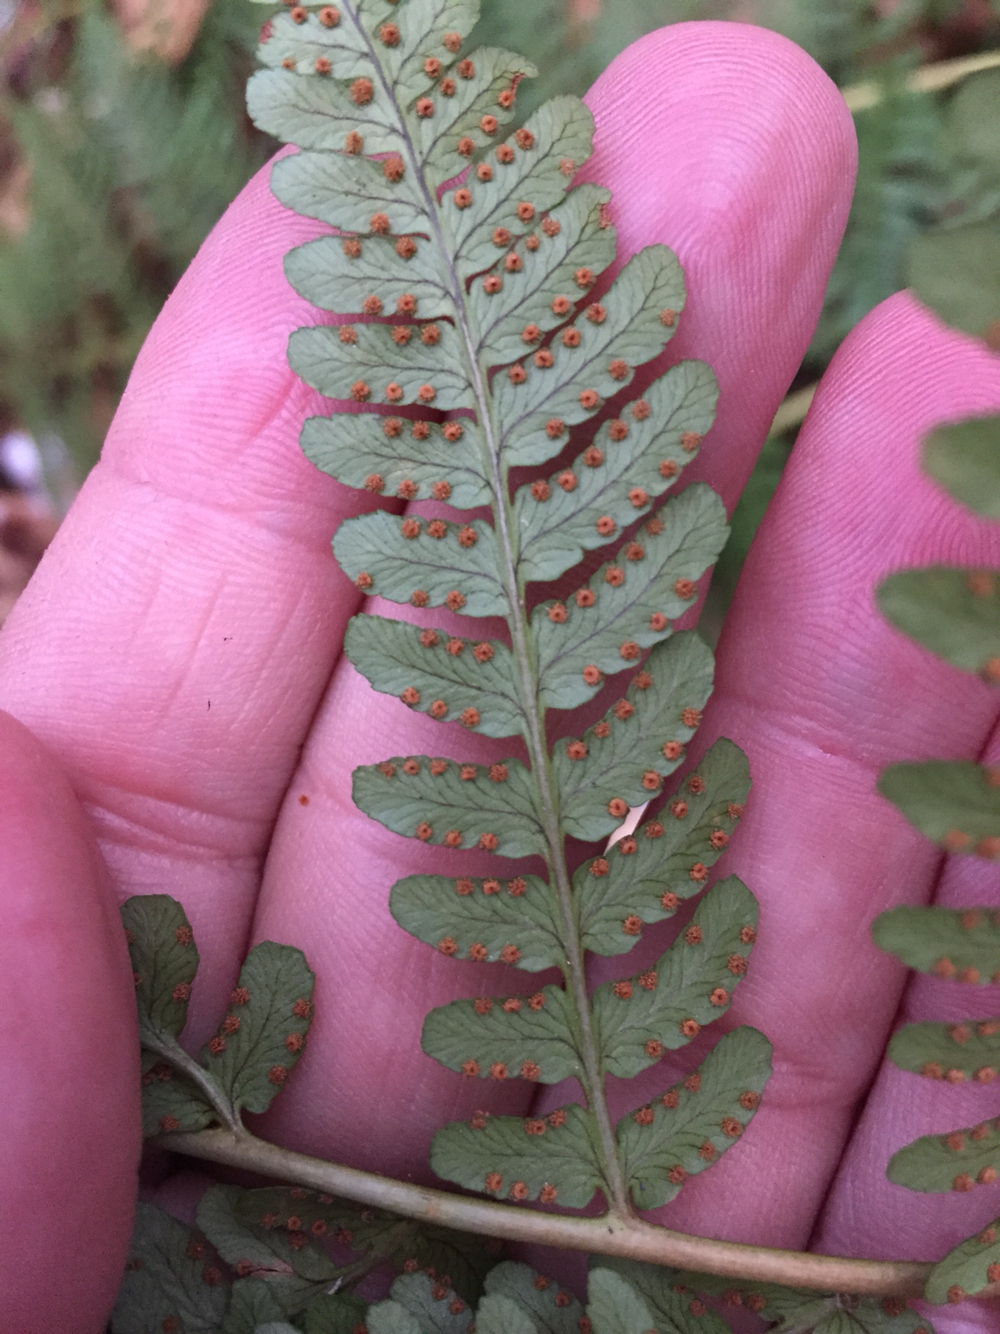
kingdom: Plantae
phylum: Tracheophyta
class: Polypodiopsida
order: Polypodiales
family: Dryopteridaceae
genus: Dryopteris
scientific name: Dryopteris marginalis
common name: Marginal wood fern
